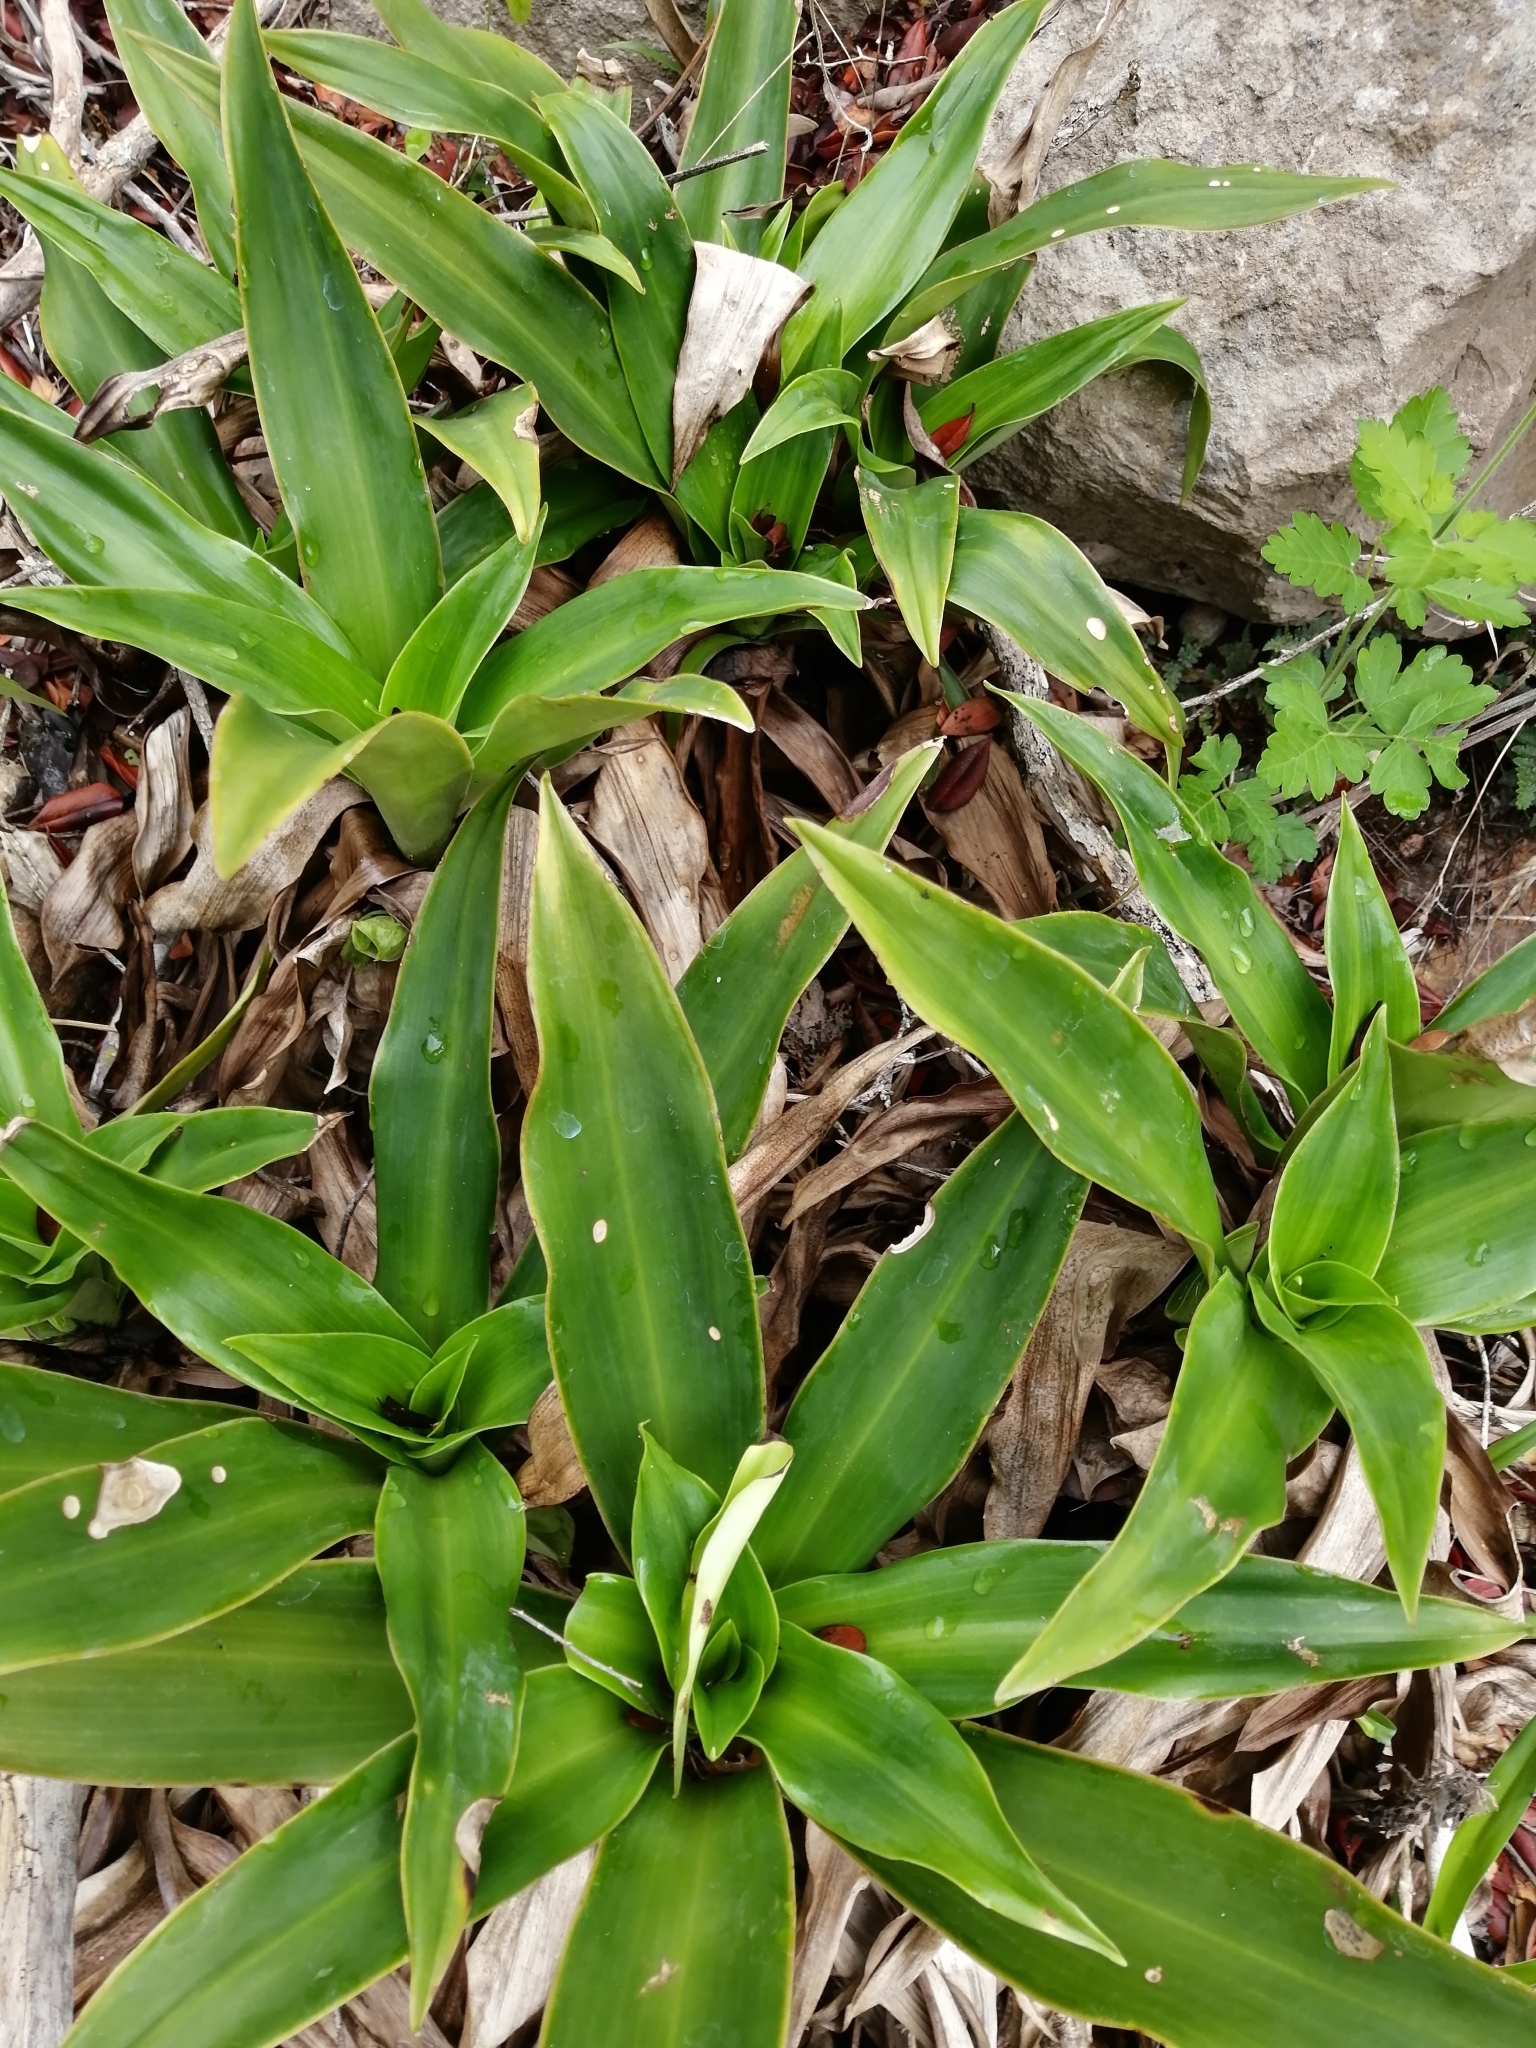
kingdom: Plantae
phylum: Tracheophyta
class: Liliopsida
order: Commelinales
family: Commelinaceae
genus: Callisia
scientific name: Callisia fragrans
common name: Basketplant
